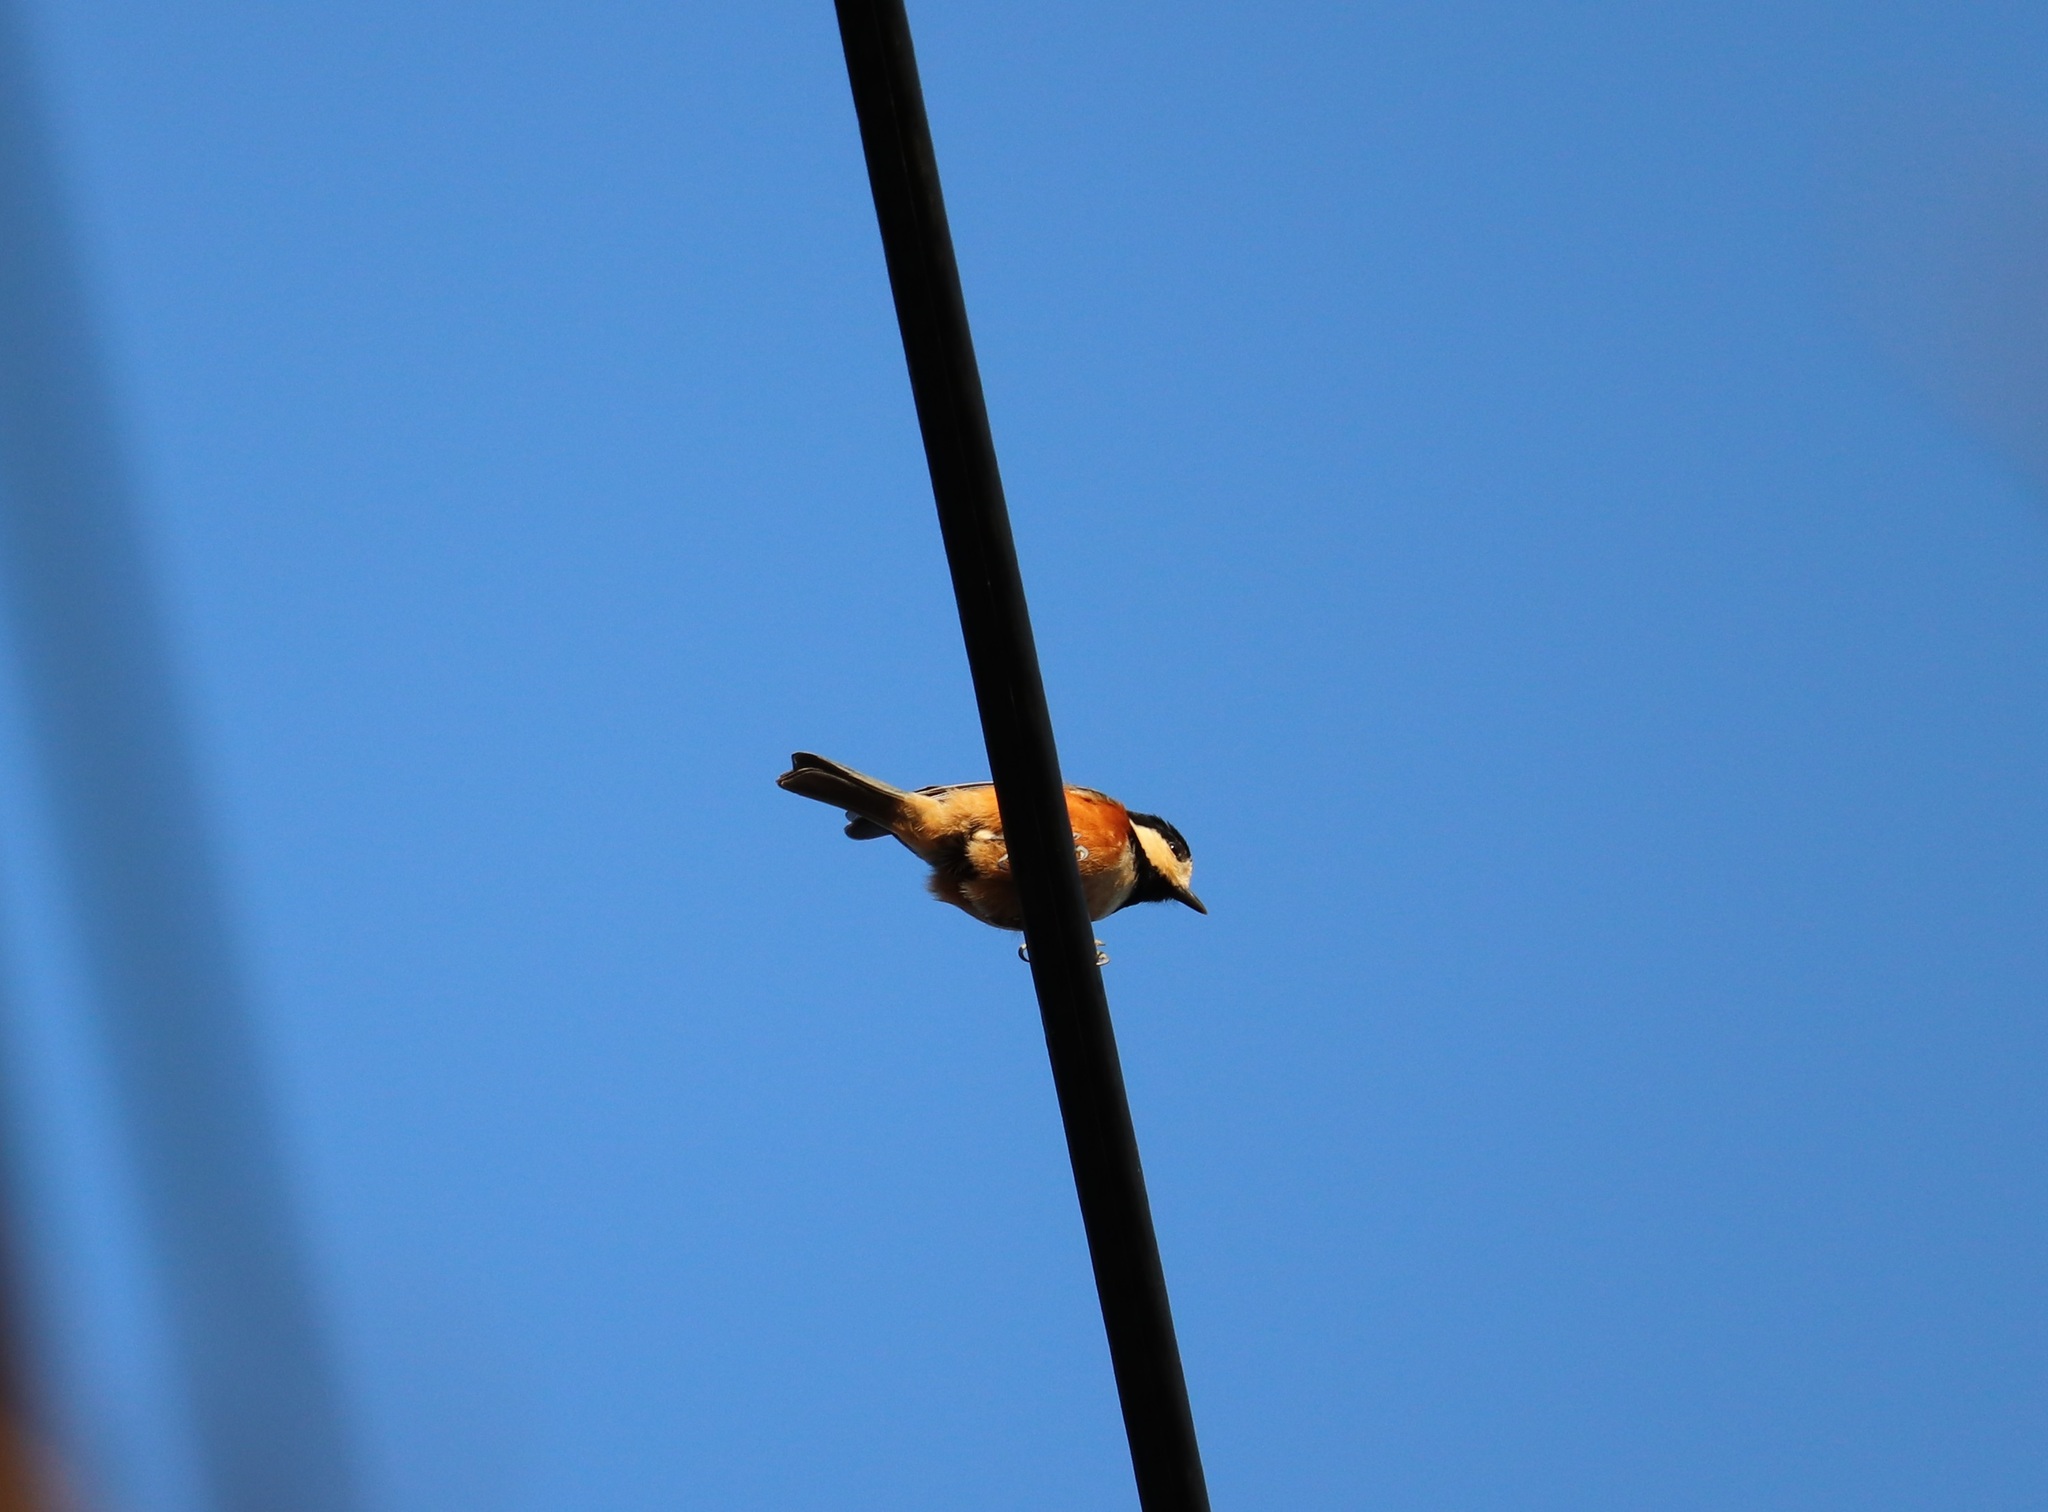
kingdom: Animalia
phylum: Chordata
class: Aves
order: Passeriformes
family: Paridae
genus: Poecile
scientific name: Poecile varius
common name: Varied tit
